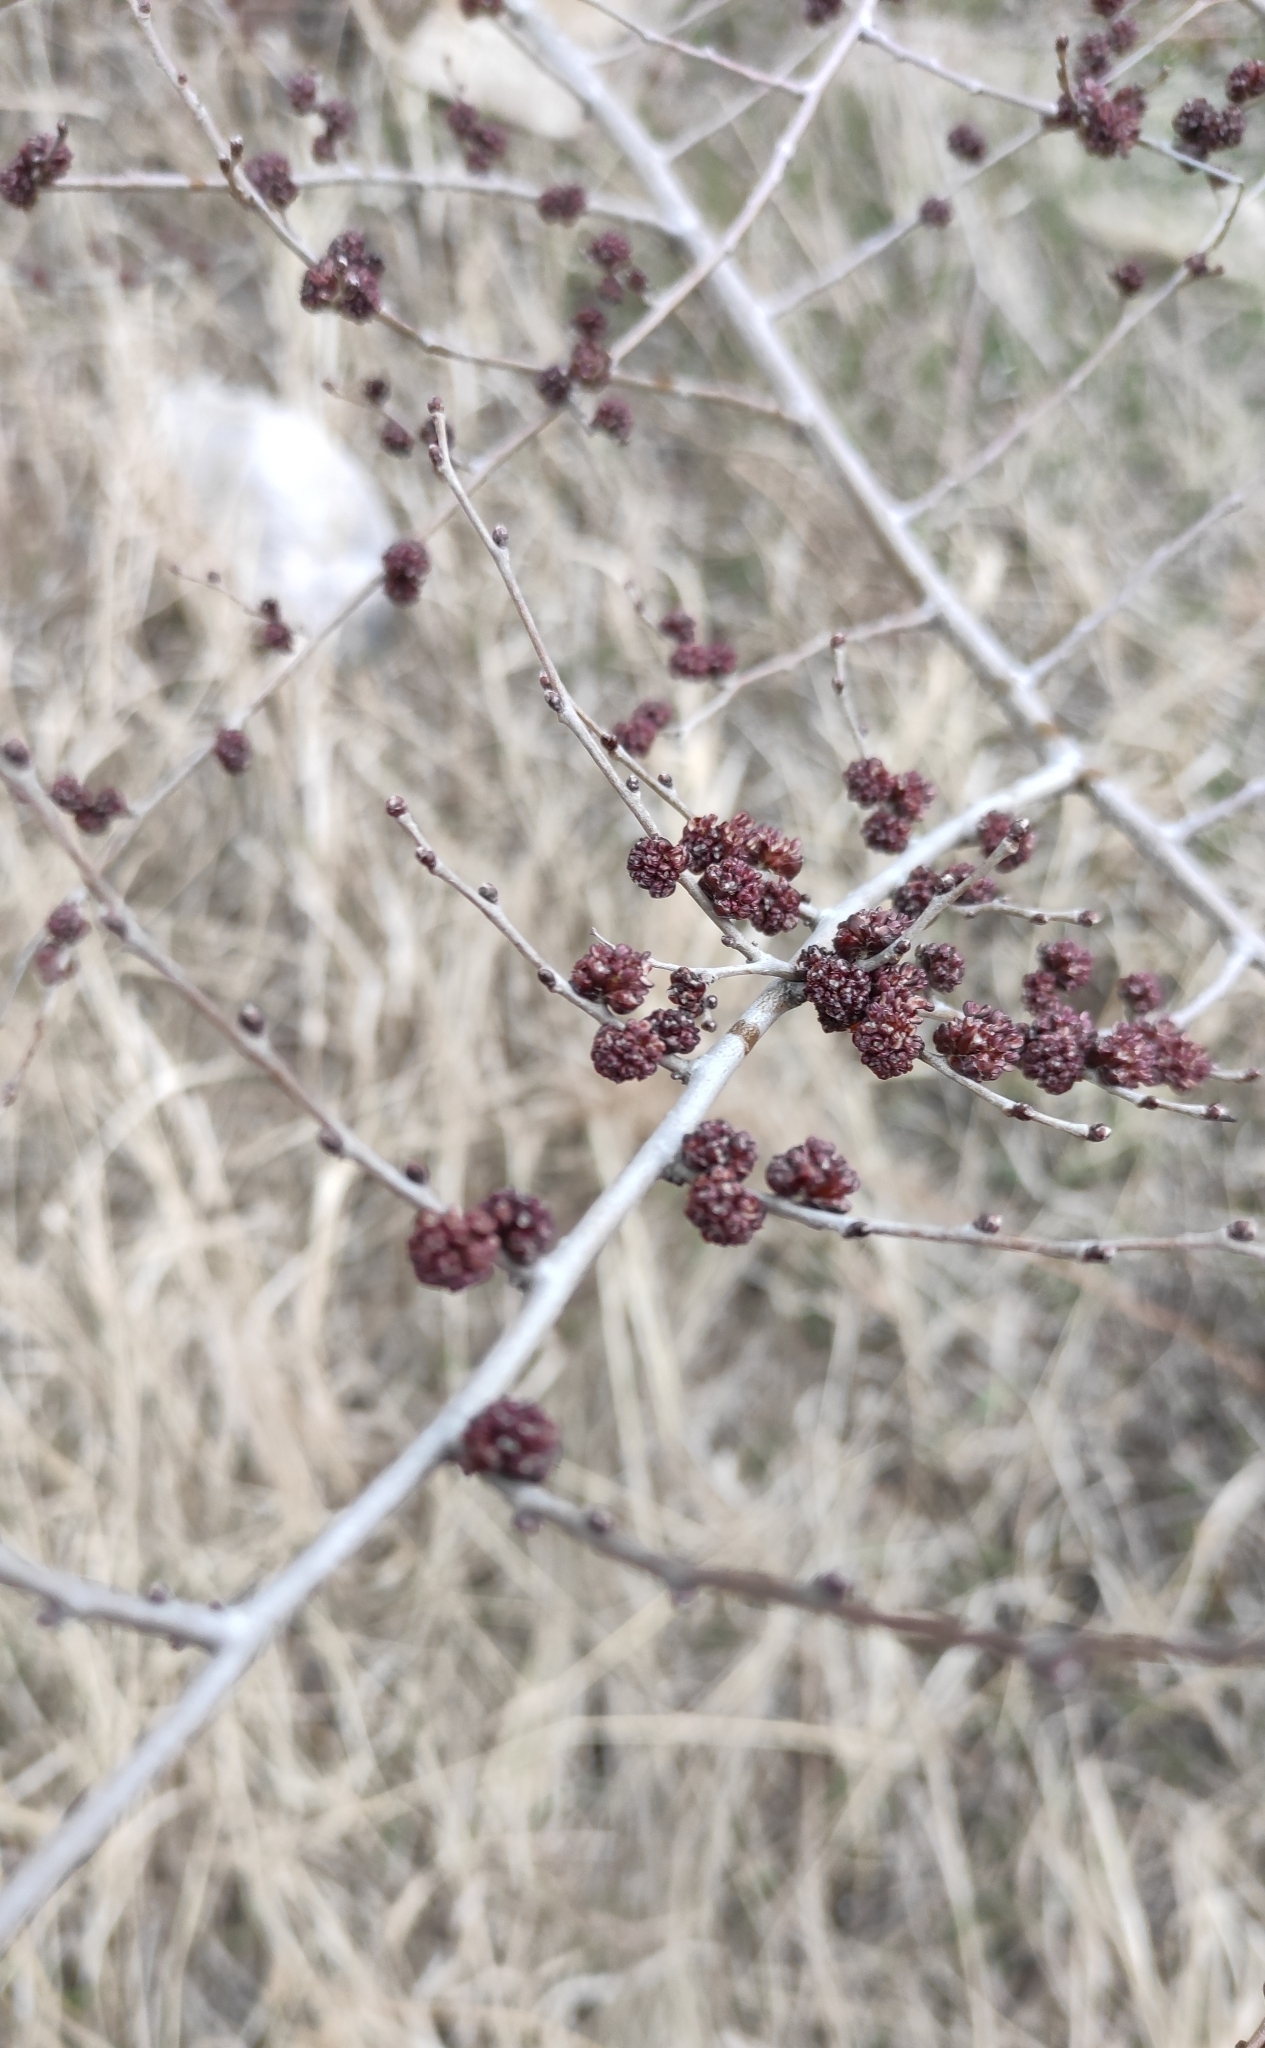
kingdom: Plantae
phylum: Tracheophyta
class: Magnoliopsida
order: Rosales
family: Ulmaceae
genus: Ulmus
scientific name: Ulmus pumila
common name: Siberian elm
